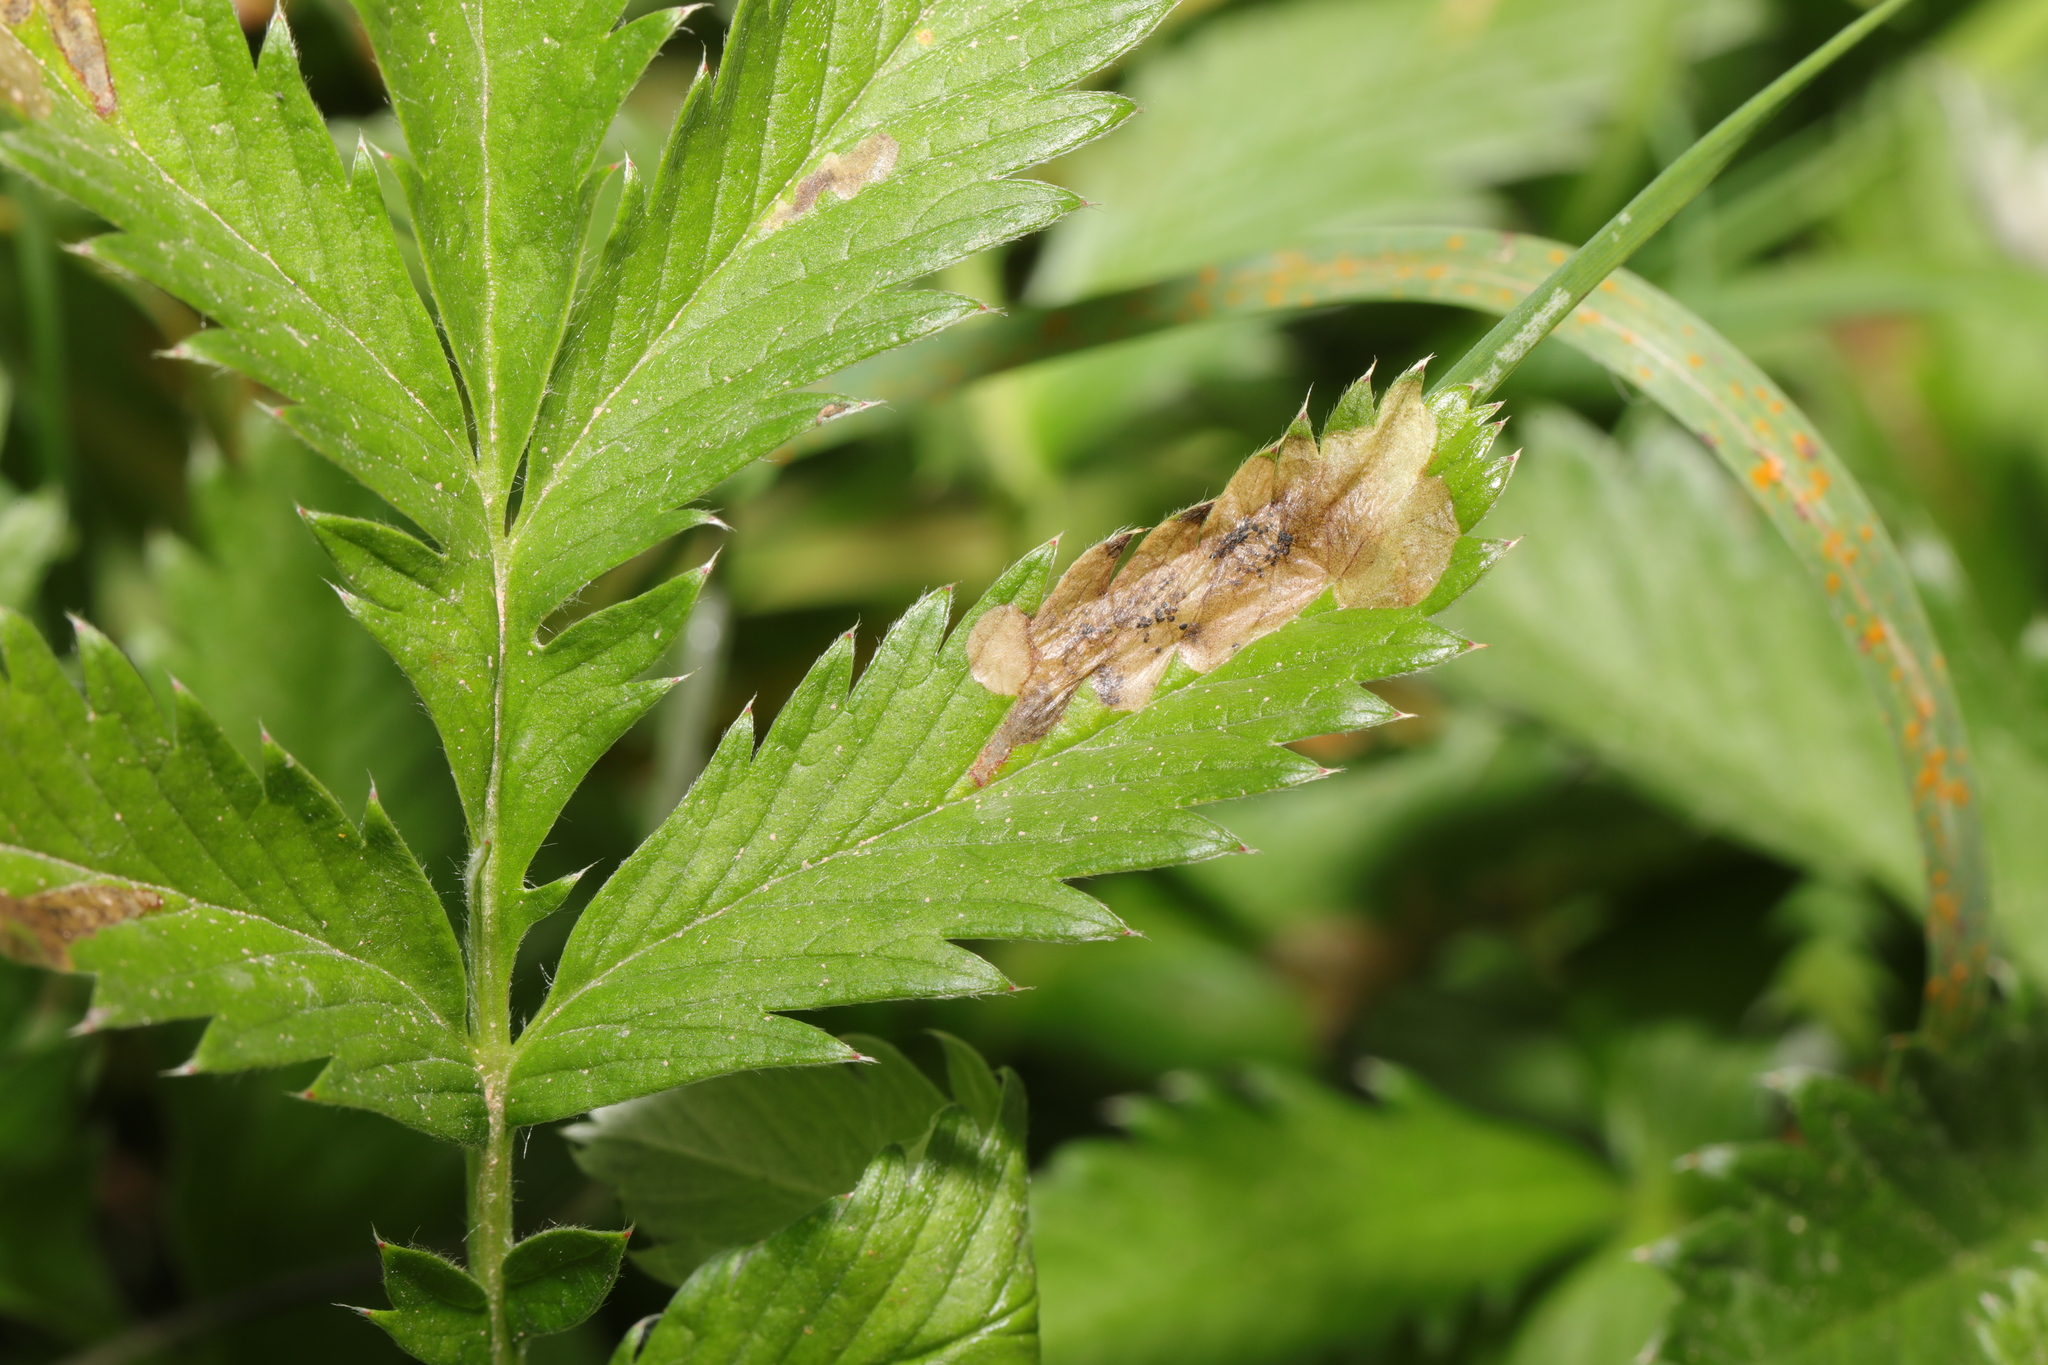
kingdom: Animalia
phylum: Arthropoda
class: Insecta
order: Hymenoptera
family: Tenthredinidae
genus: Fenella
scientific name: Fenella nigrita
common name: Tenthredid wasp
